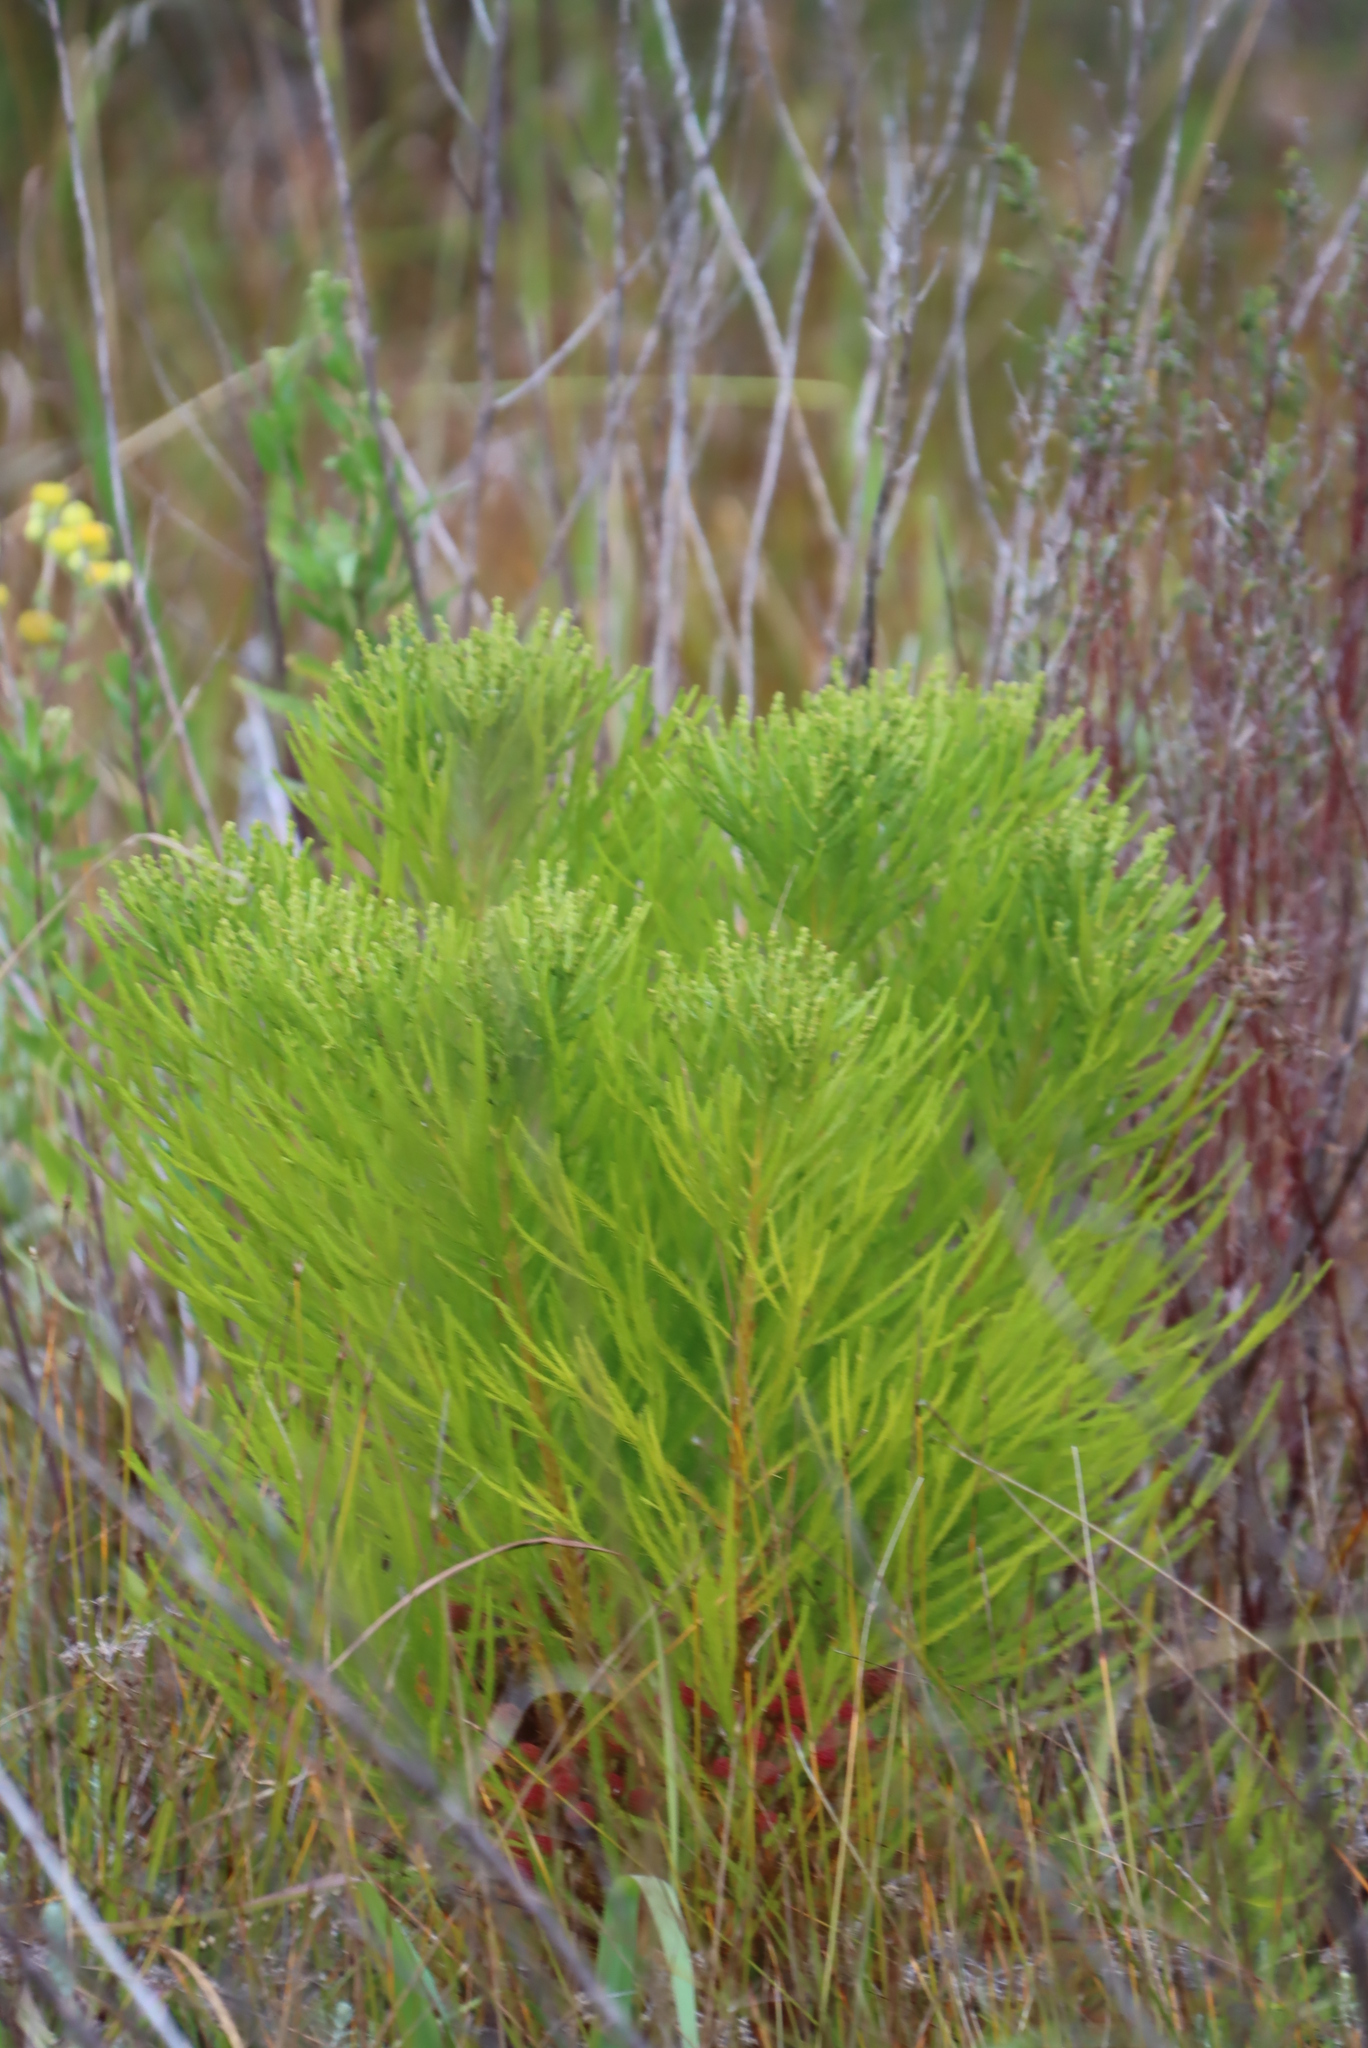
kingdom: Plantae
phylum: Tracheophyta
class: Magnoliopsida
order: Bruniales
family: Bruniaceae
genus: Berzelia
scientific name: Berzelia lanuginosa
